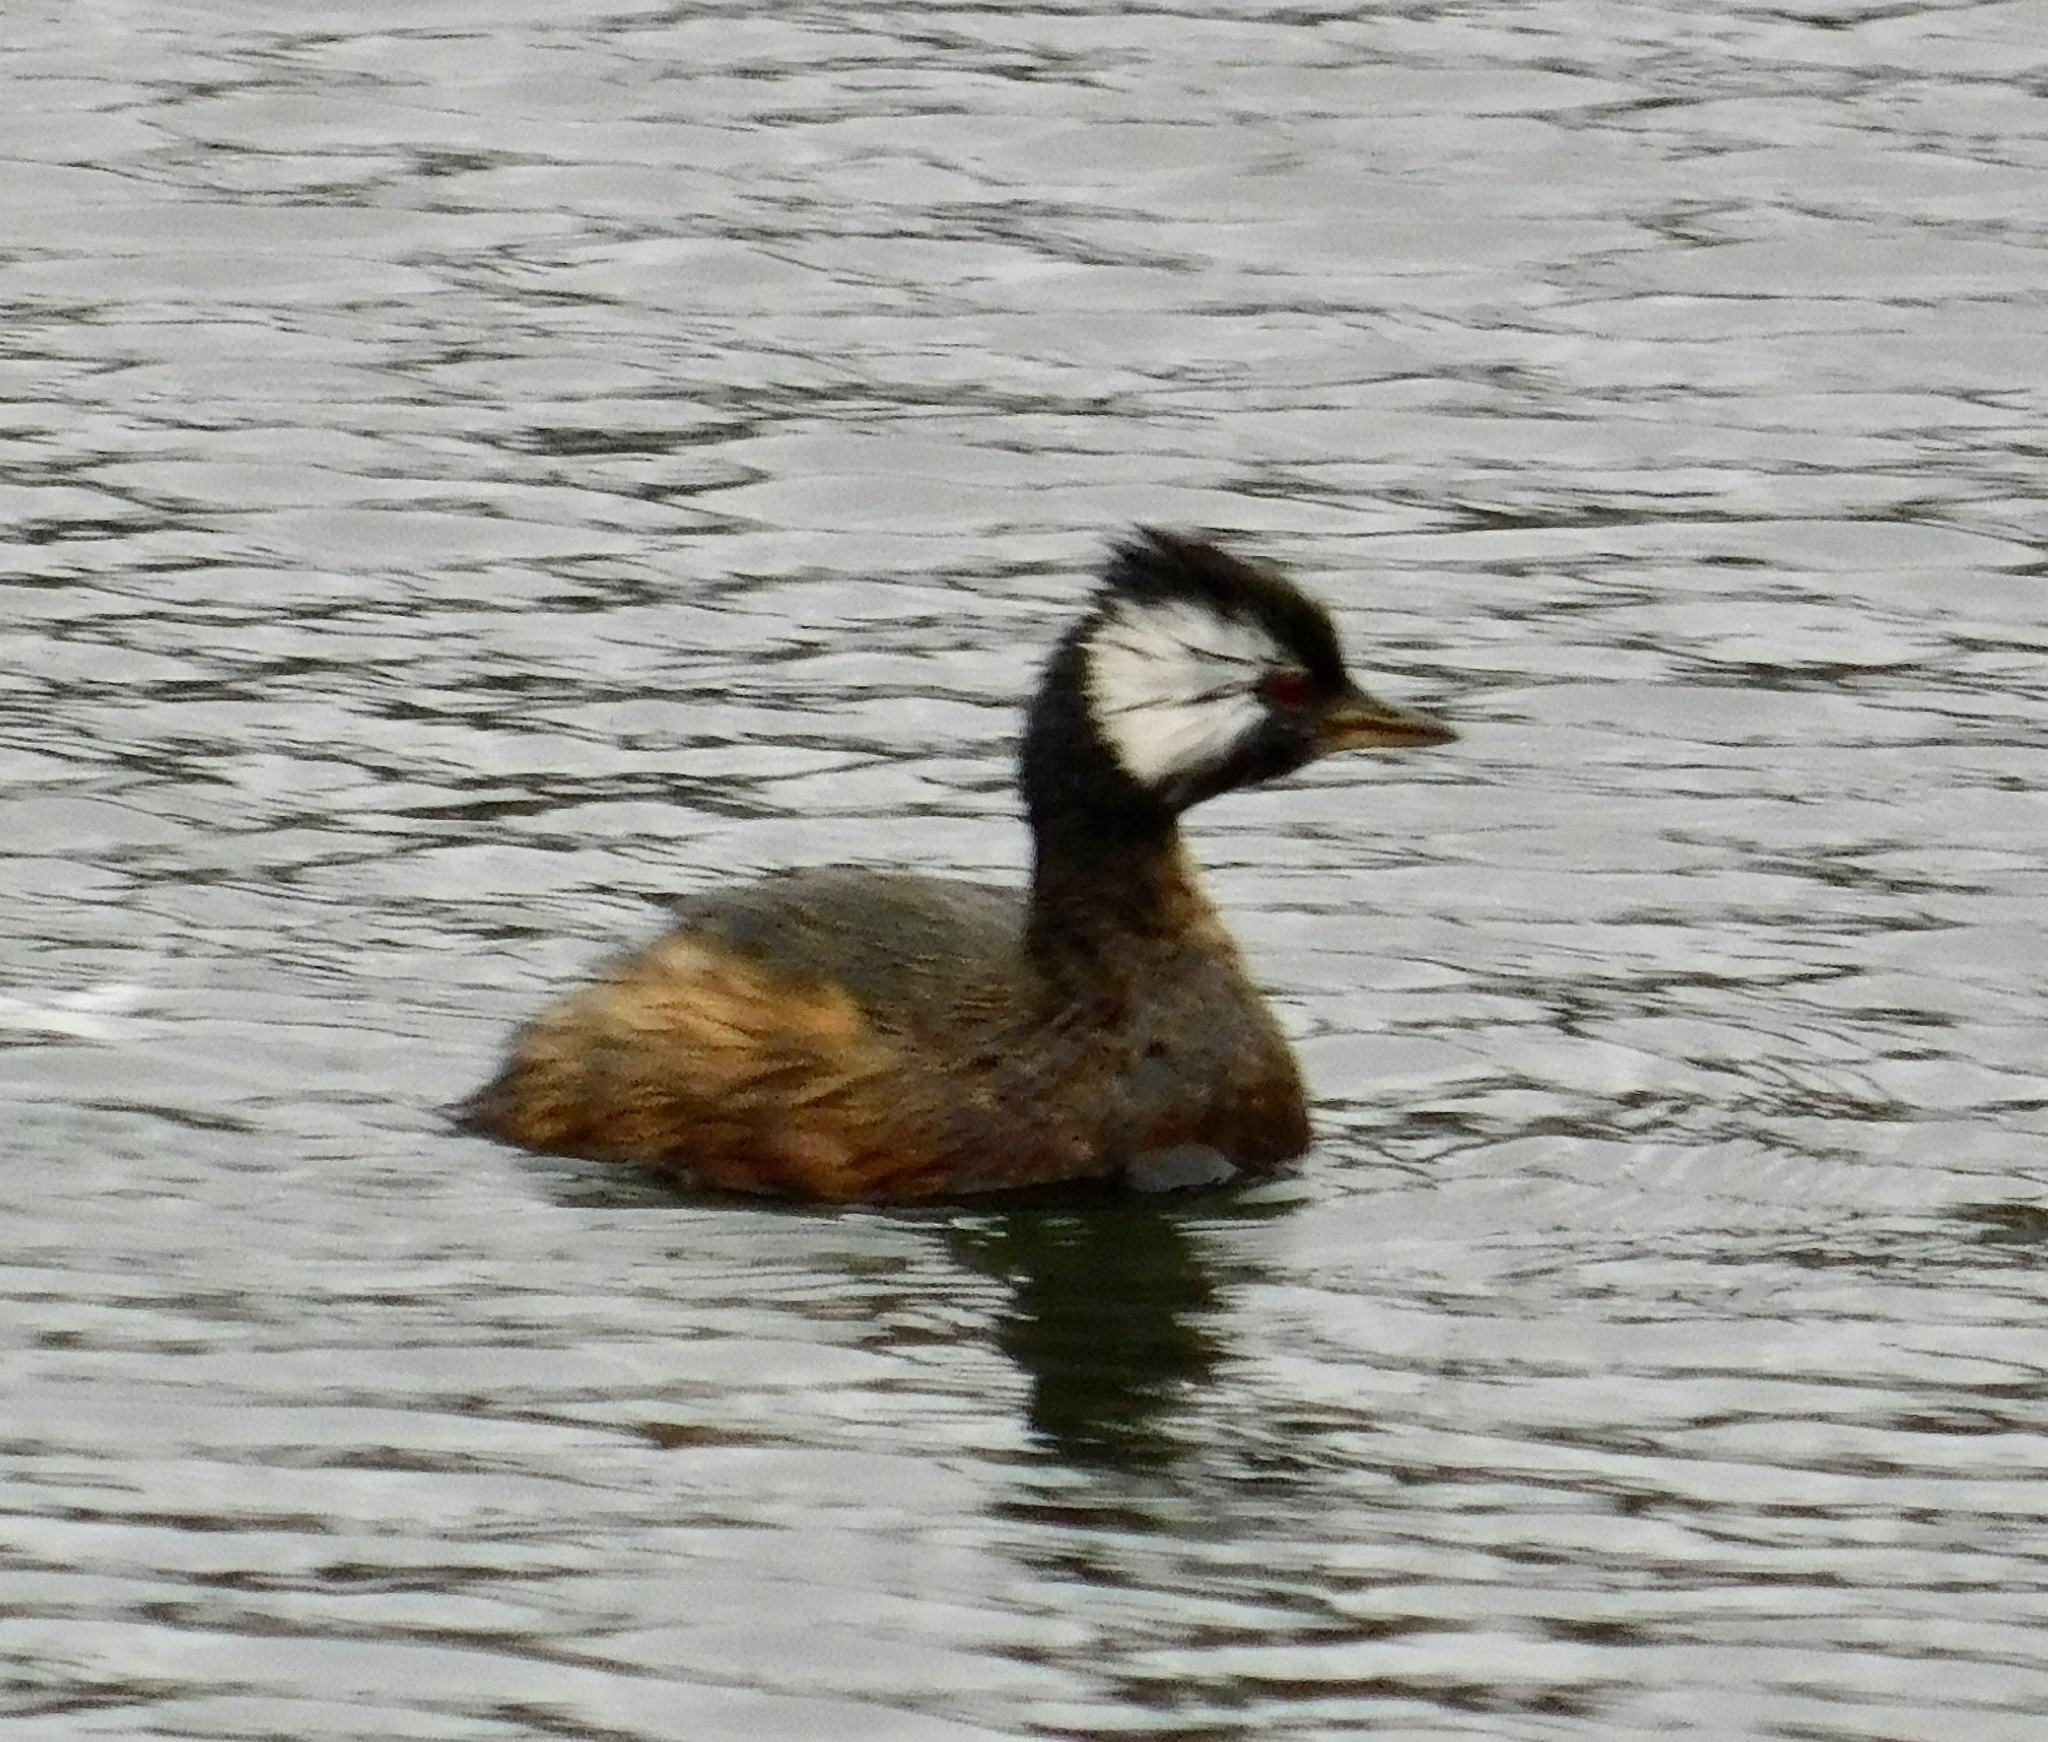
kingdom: Animalia
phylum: Chordata
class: Aves
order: Podicipediformes
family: Podicipedidae
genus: Rollandia
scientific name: Rollandia rolland
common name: White-tufted grebe
